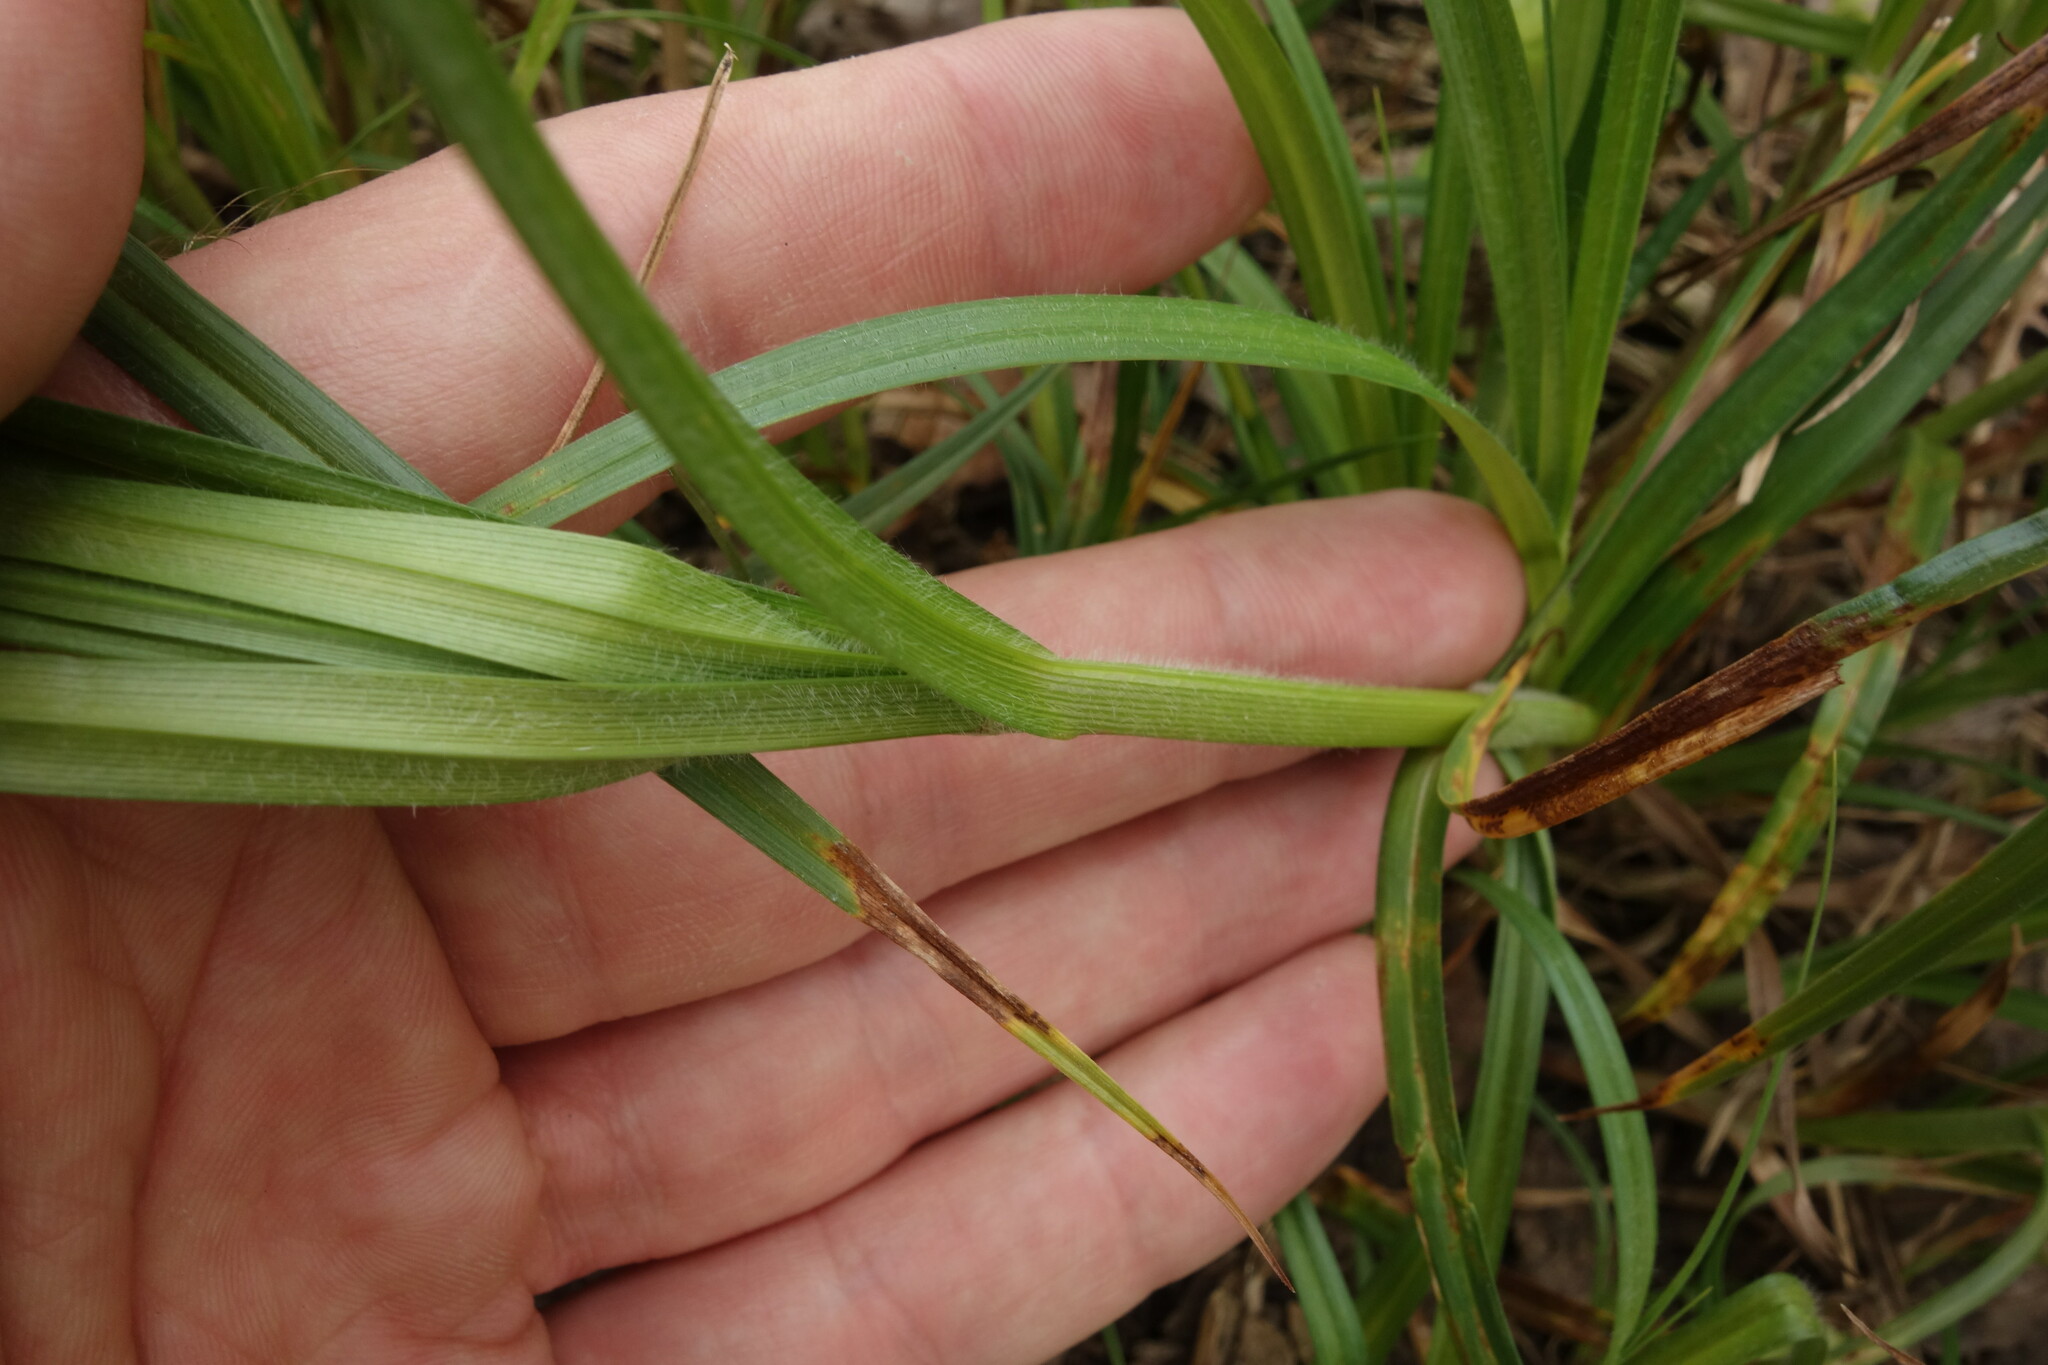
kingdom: Plantae
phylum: Tracheophyta
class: Liliopsida
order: Poales
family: Cyperaceae
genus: Carex
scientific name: Carex hirta
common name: Hairy sedge
